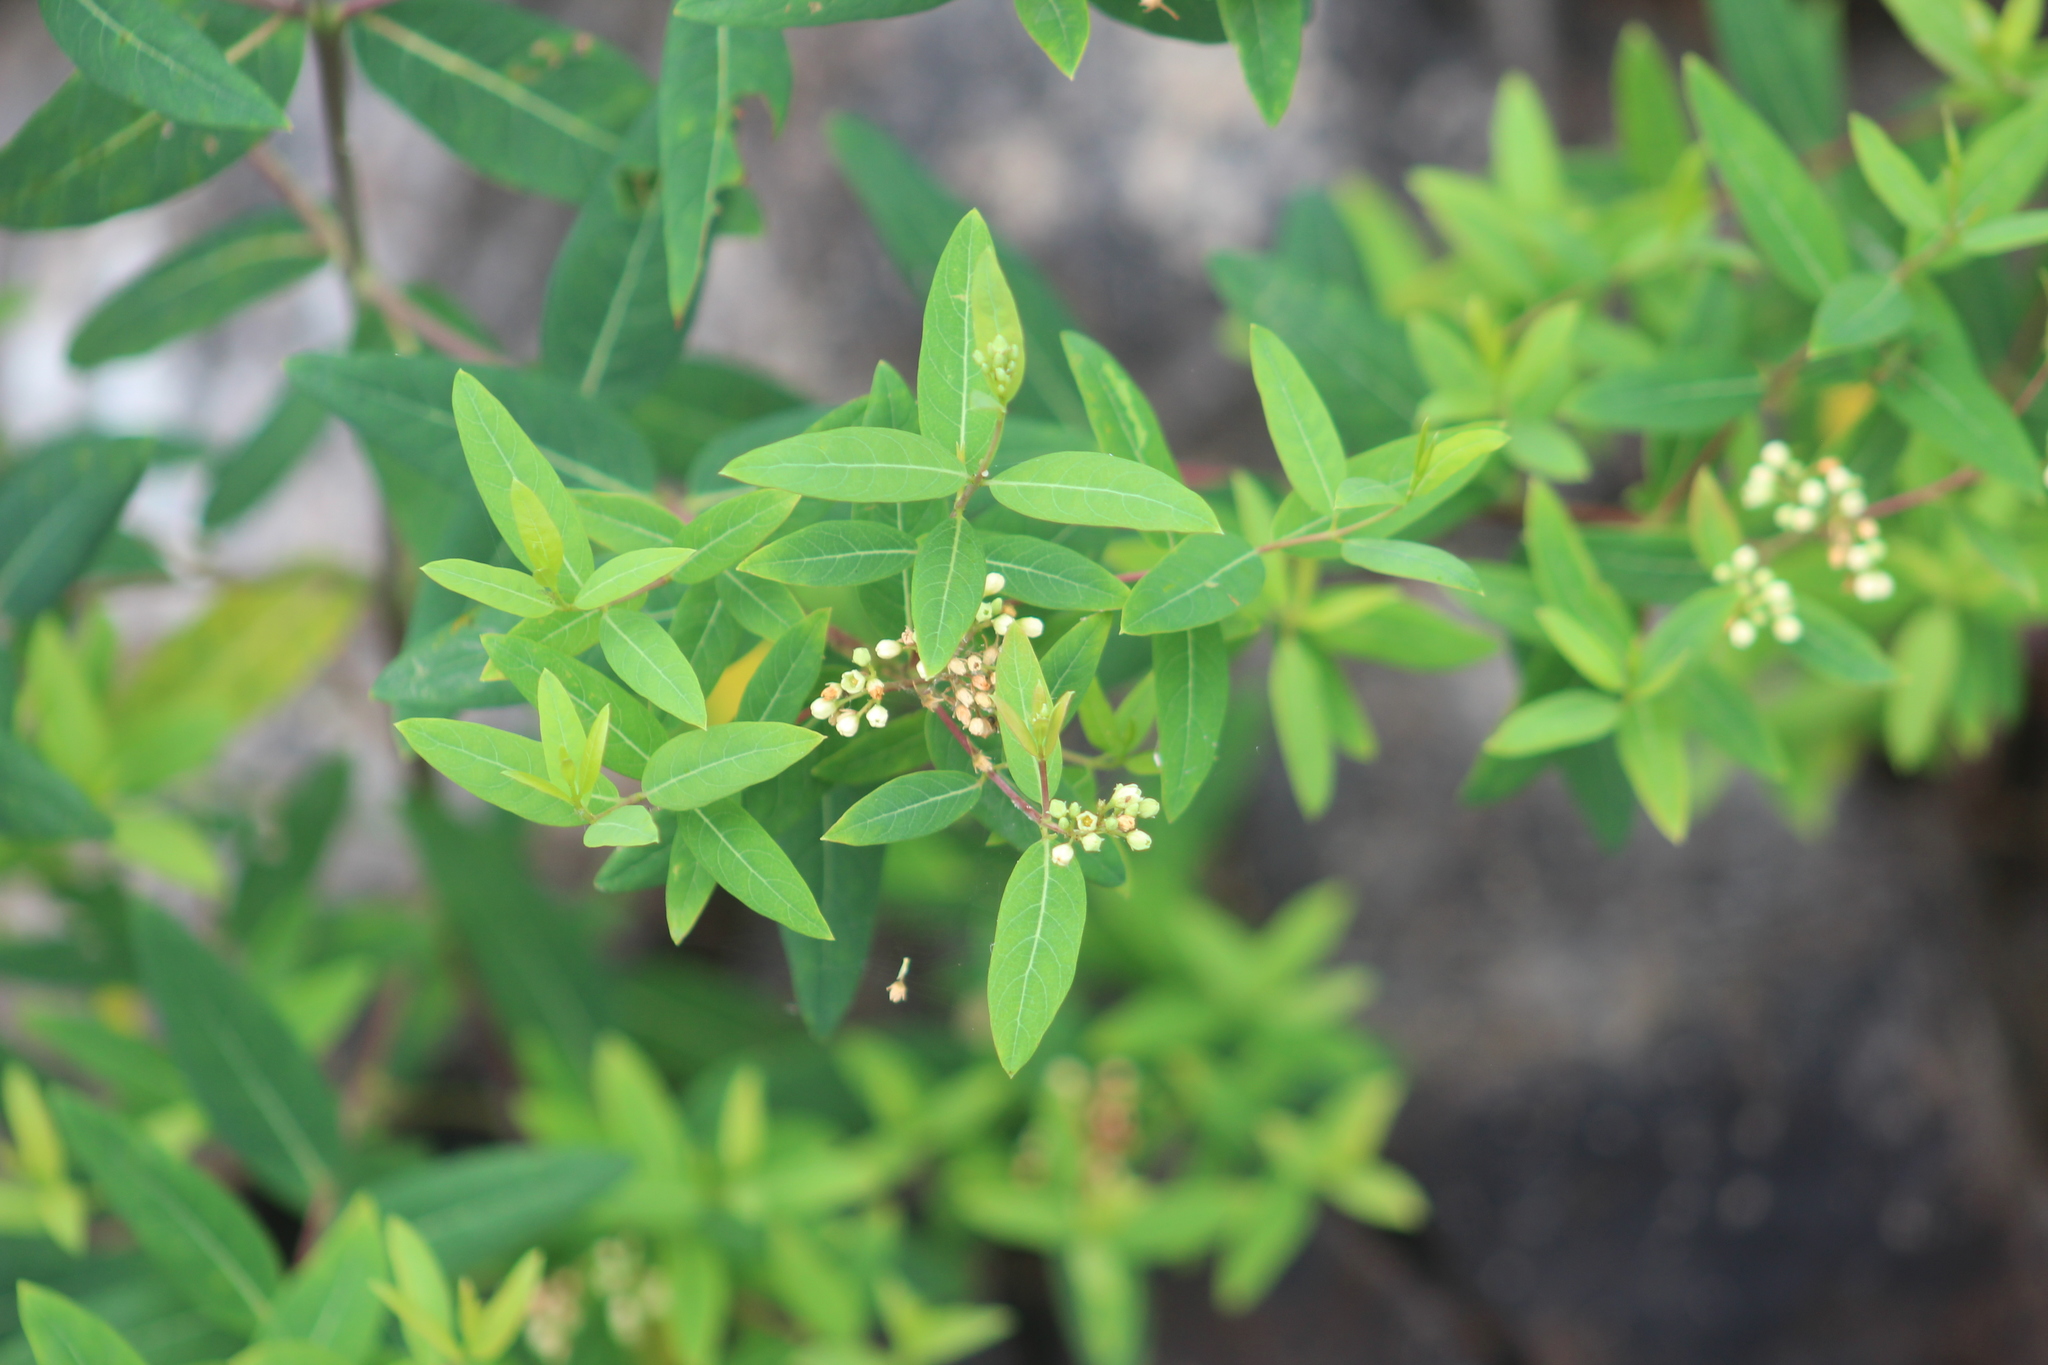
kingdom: Plantae
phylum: Tracheophyta
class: Magnoliopsida
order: Gentianales
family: Apocynaceae
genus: Apocynum
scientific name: Apocynum cannabinum
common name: Hemp dogbane
